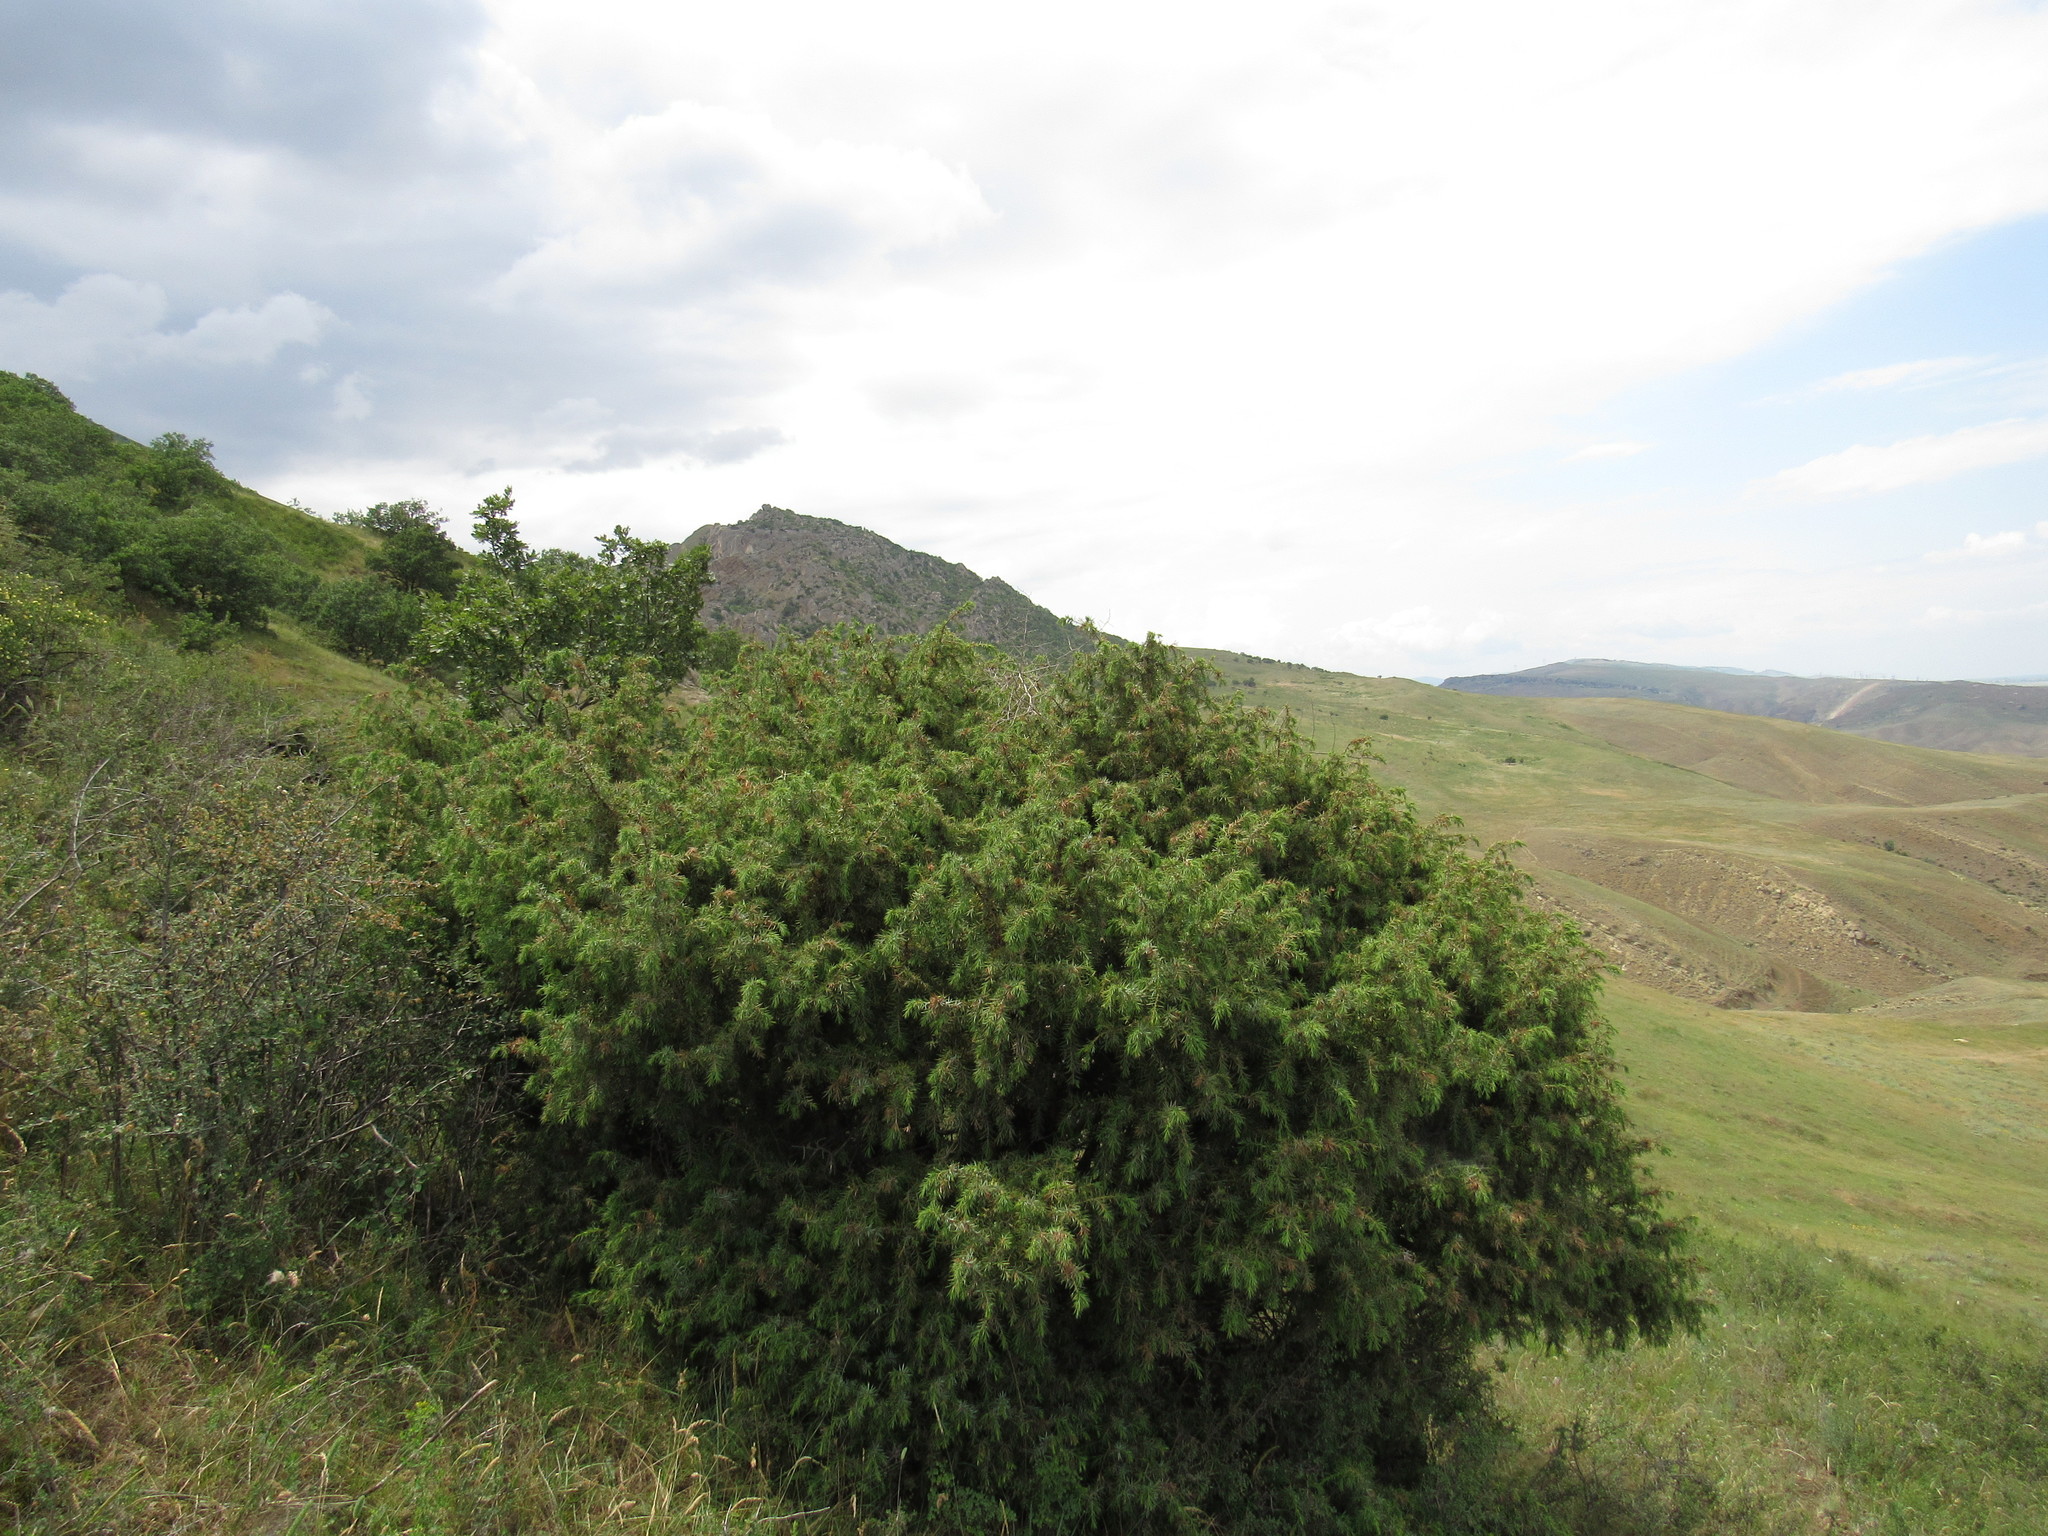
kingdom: Plantae
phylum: Tracheophyta
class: Pinopsida
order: Pinales
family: Cupressaceae
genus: Juniperus
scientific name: Juniperus communis
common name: Common juniper
